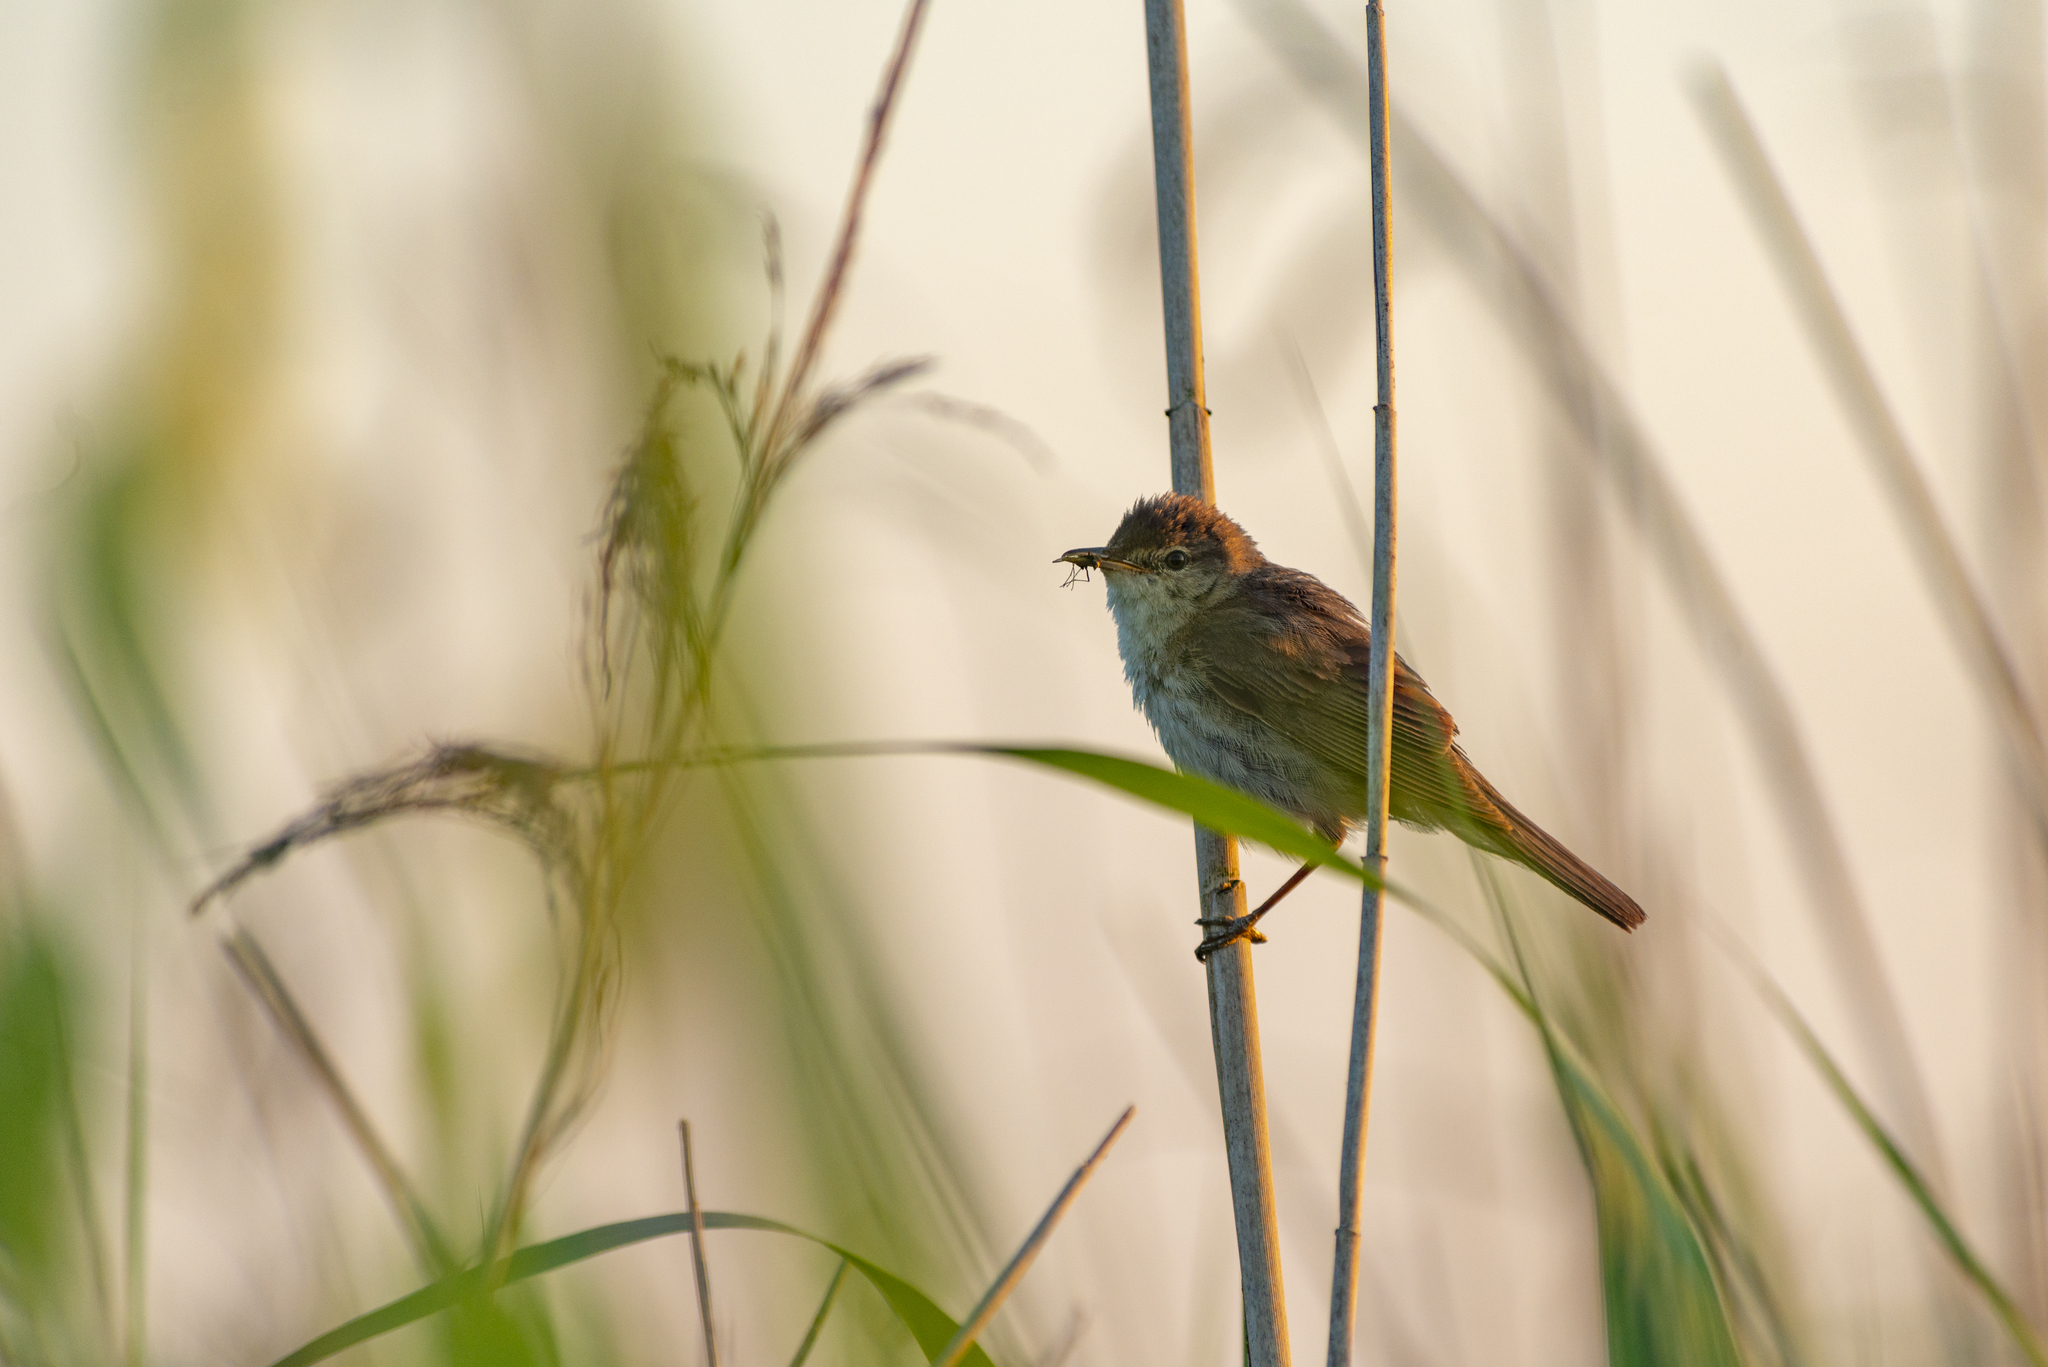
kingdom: Animalia
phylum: Chordata
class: Aves
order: Passeriformes
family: Acrocephalidae
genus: Acrocephalus
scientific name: Acrocephalus scirpaceus
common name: Eurasian reed warbler
